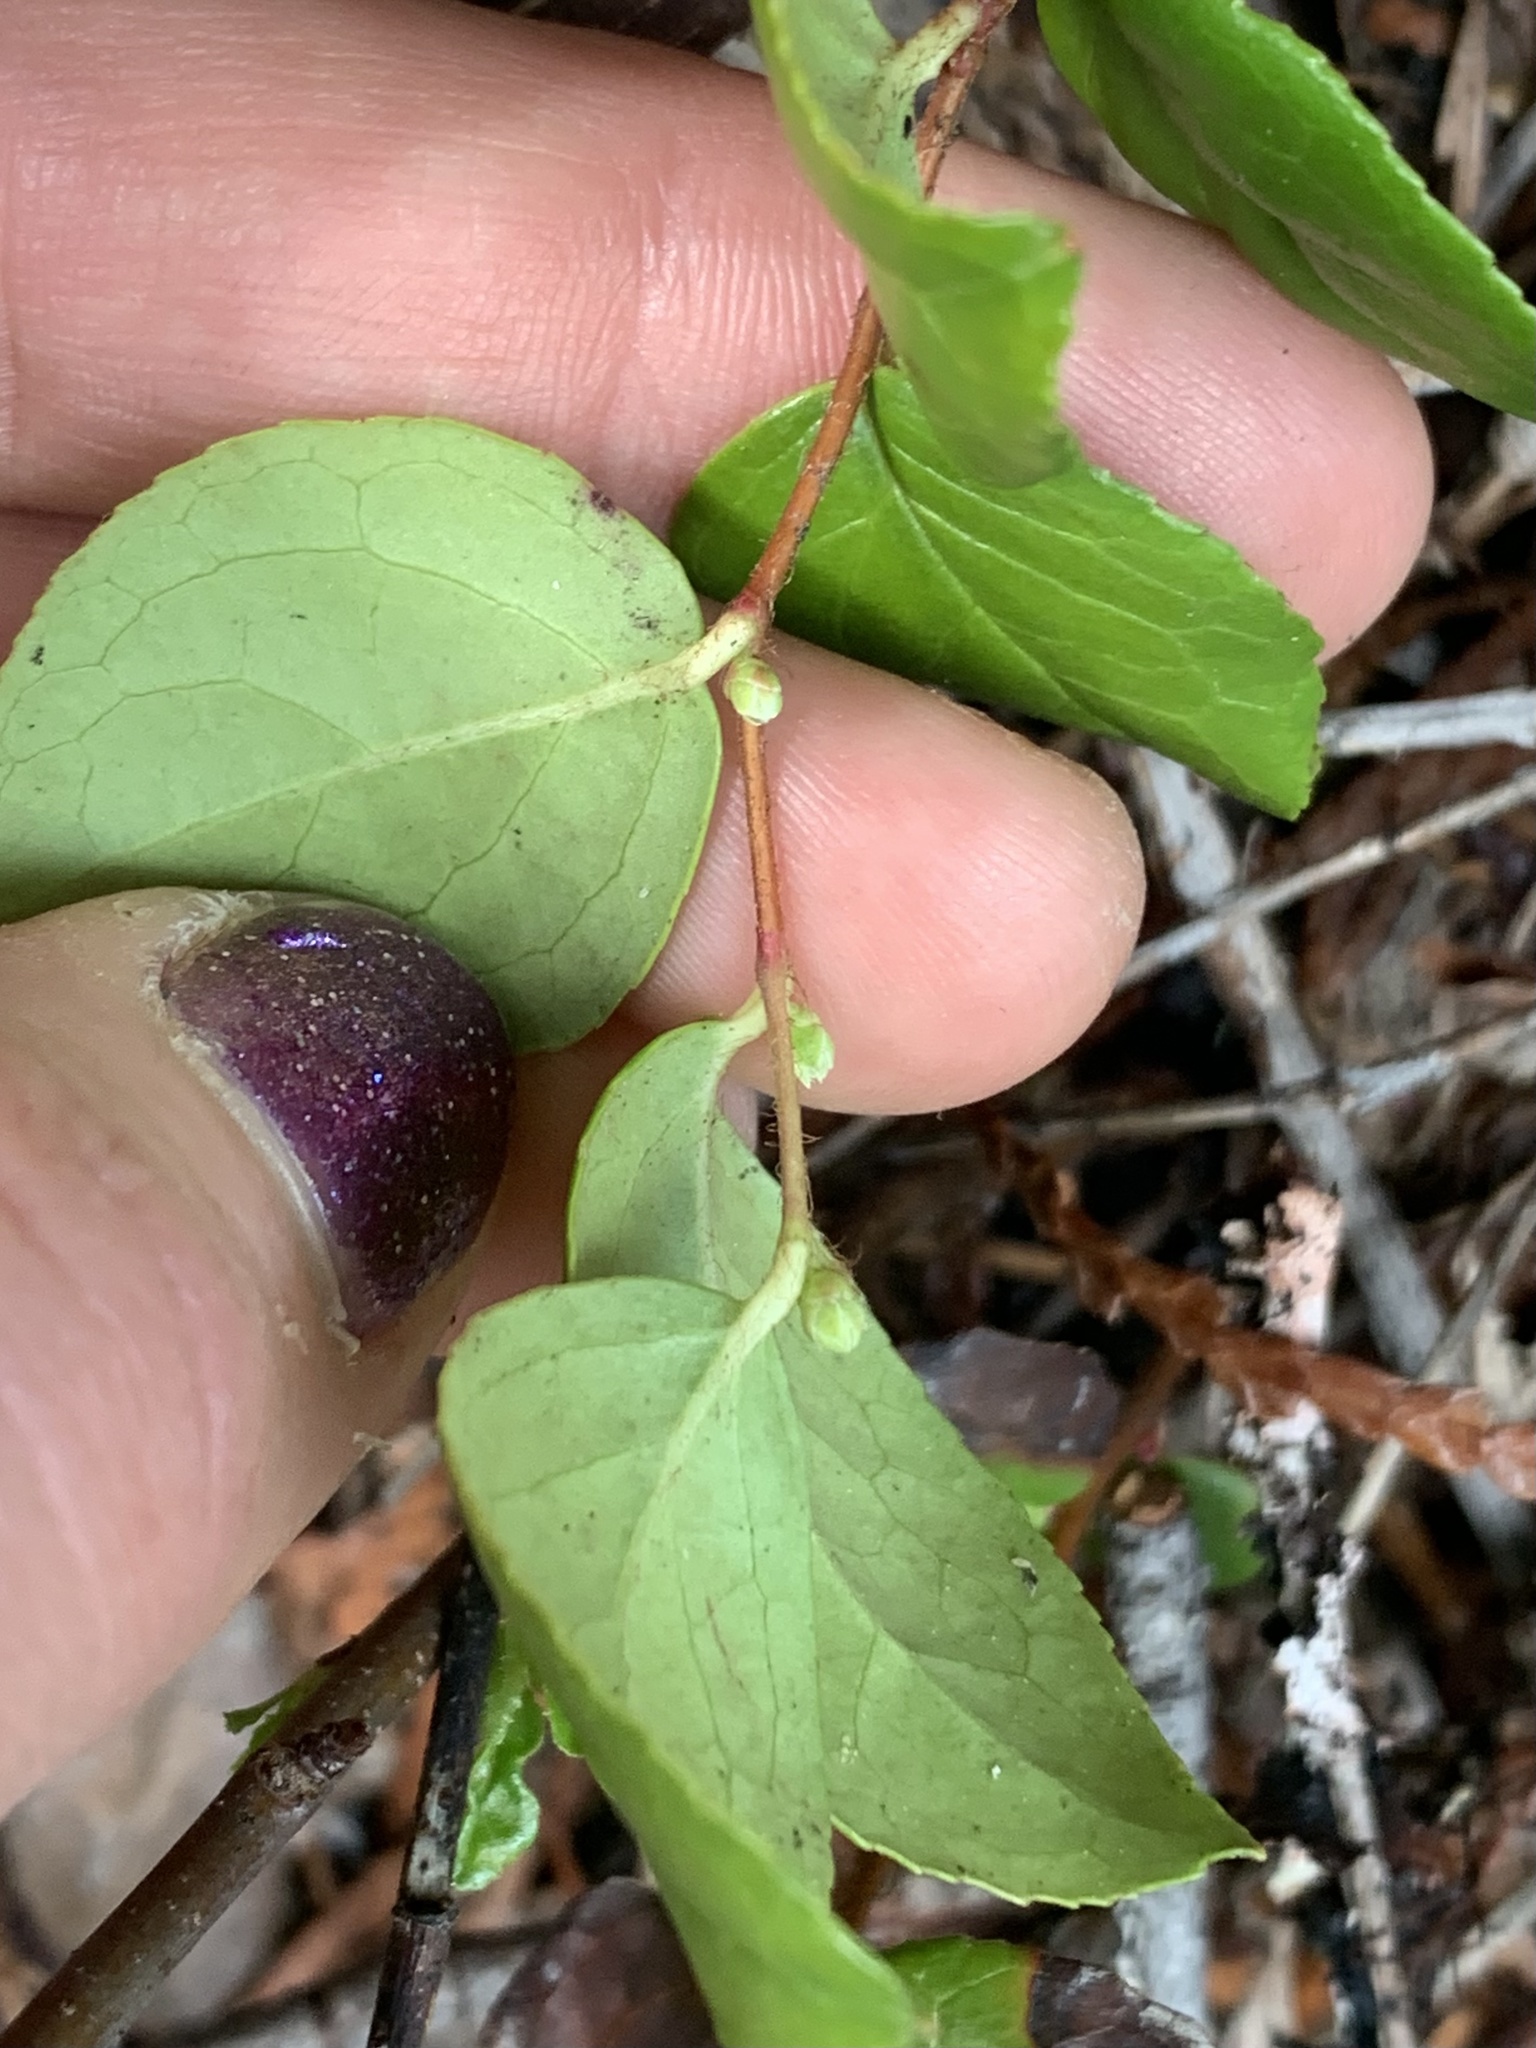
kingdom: Plantae
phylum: Tracheophyta
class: Magnoliopsida
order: Ericales
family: Ericaceae
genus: Gaultheria
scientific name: Gaultheria ovatifolia
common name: Oregon wintergreen
